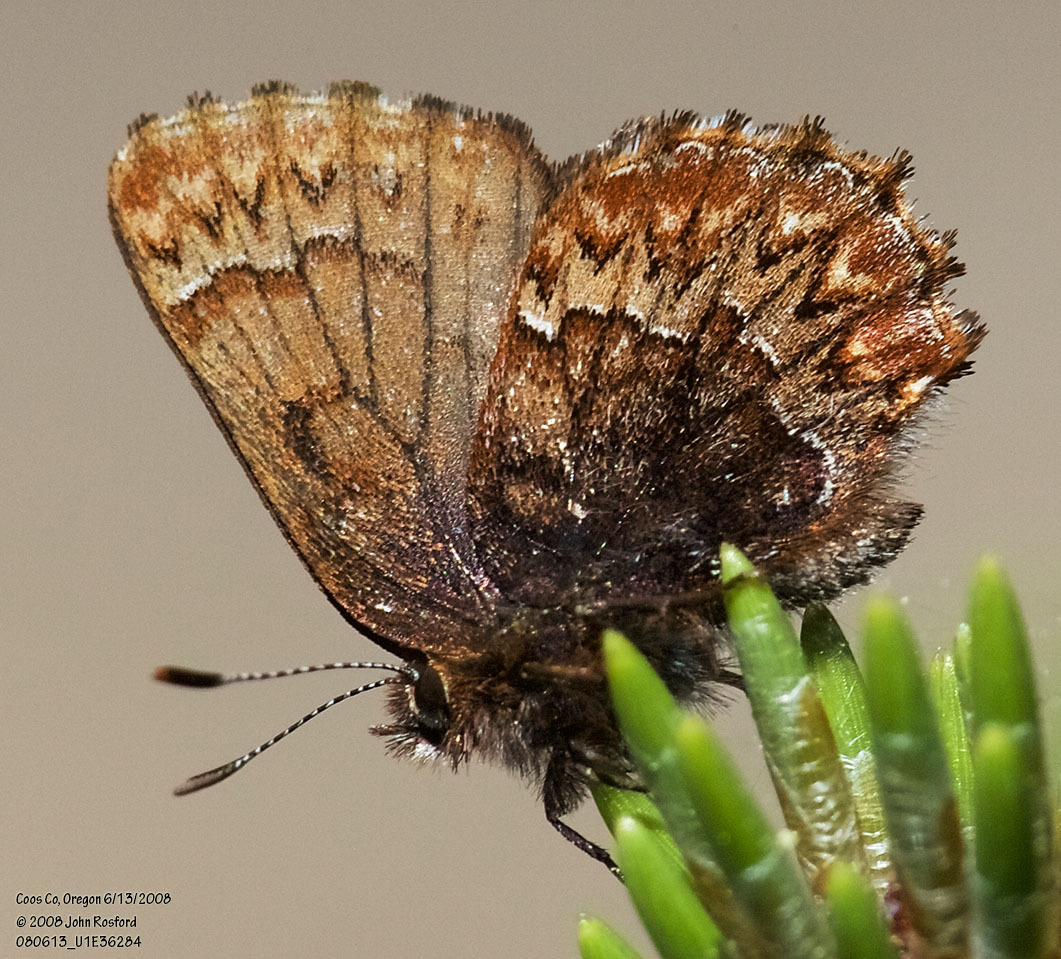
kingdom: Animalia
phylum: Arthropoda
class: Insecta
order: Lepidoptera
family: Lycaenidae
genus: Incisalia
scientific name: Incisalia eryphon
